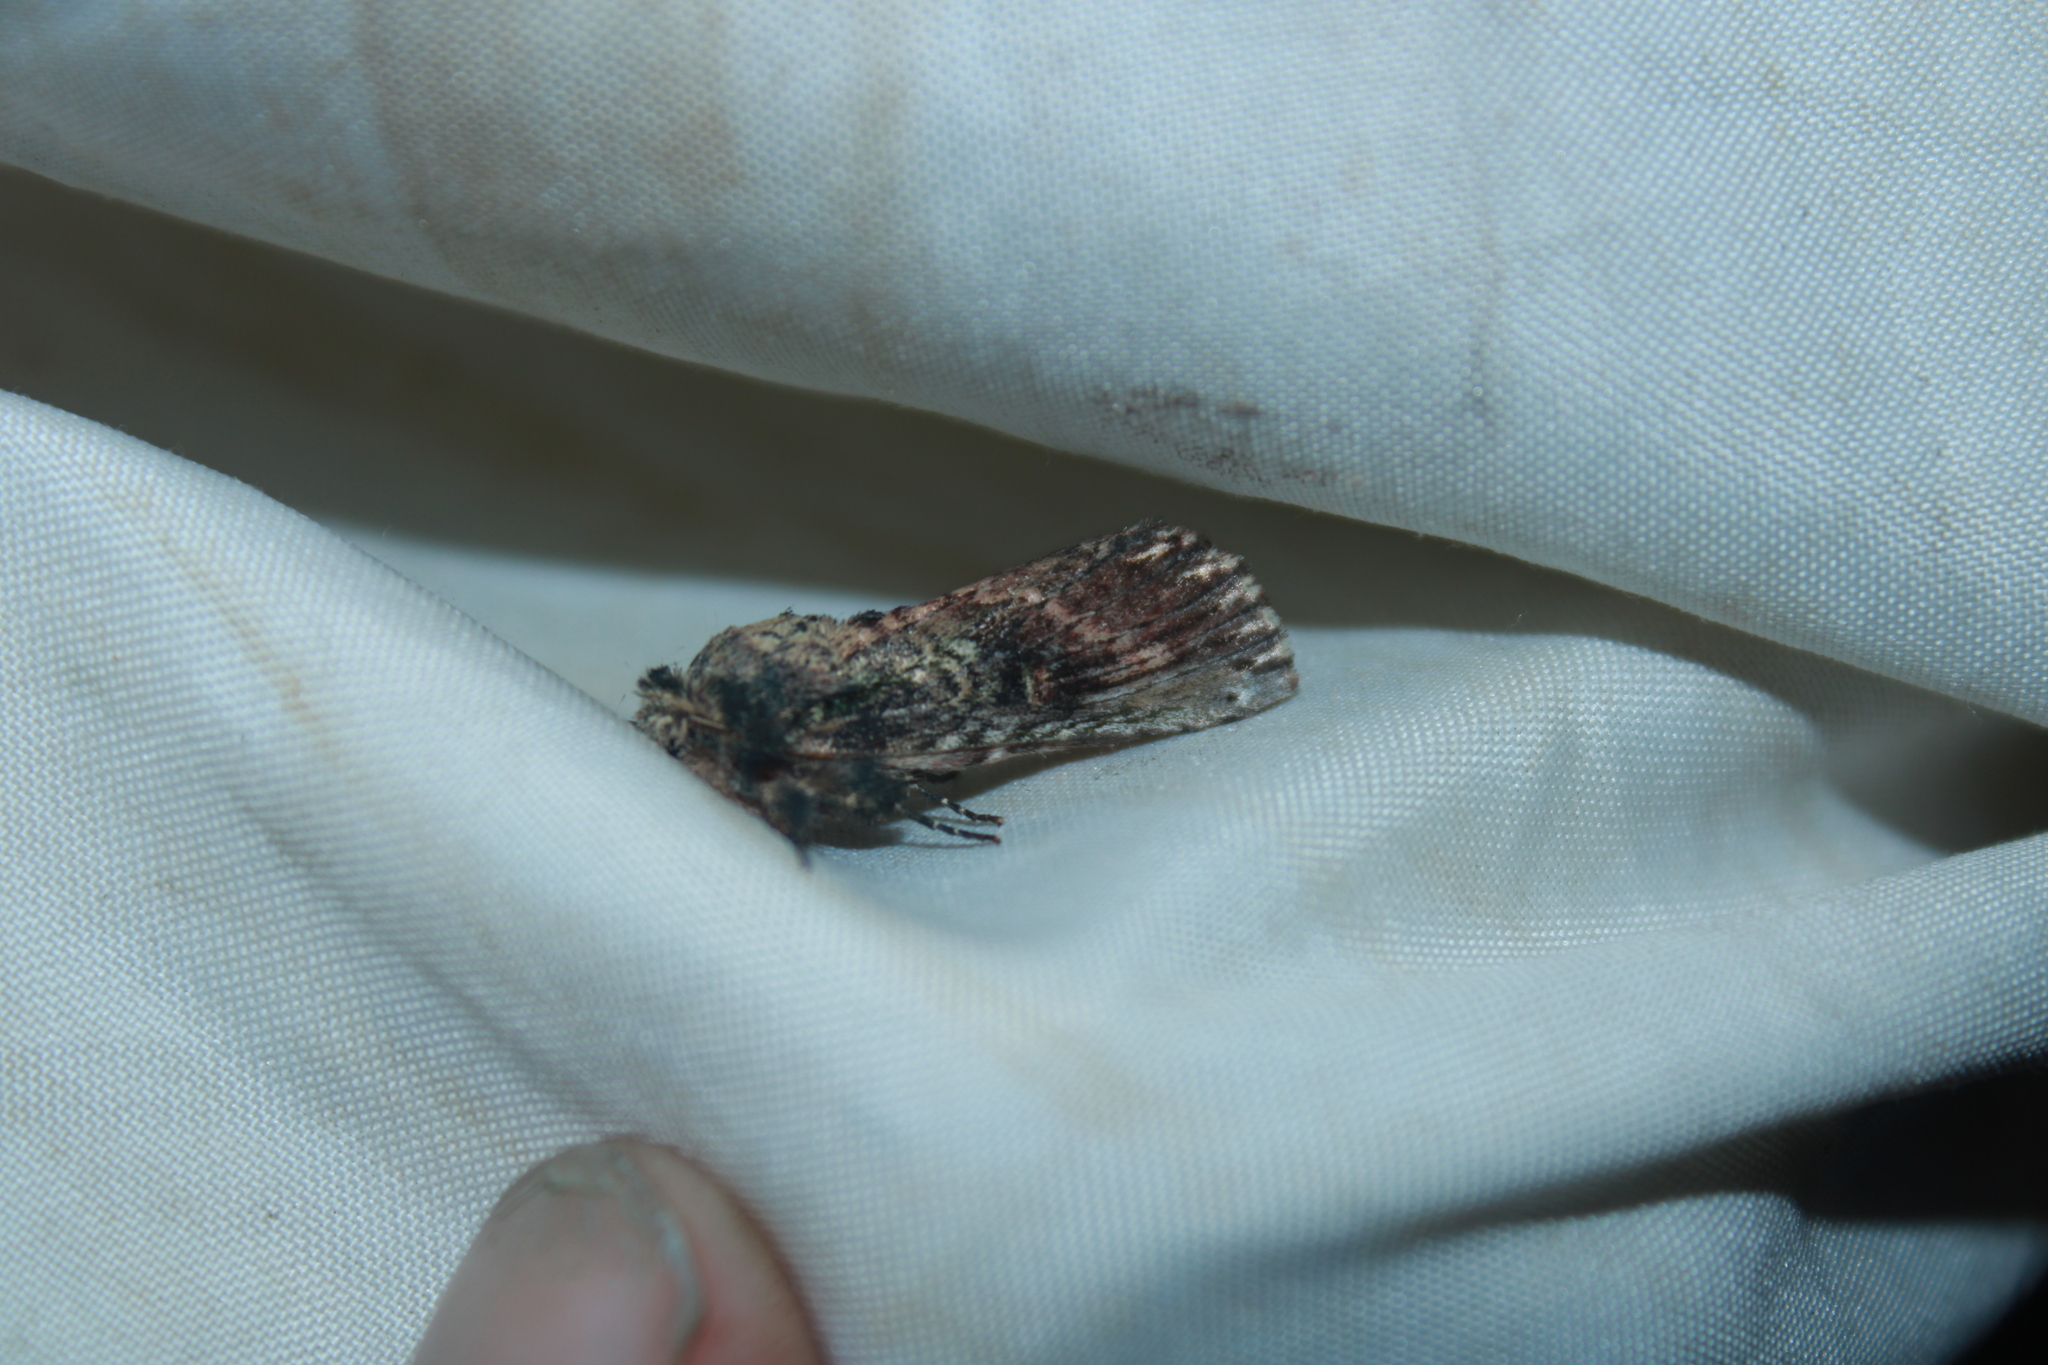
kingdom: Animalia
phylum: Arthropoda
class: Insecta
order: Lepidoptera
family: Notodontidae
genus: Schizura
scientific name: Schizura ipomaeae
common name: Morning-glory prominent
